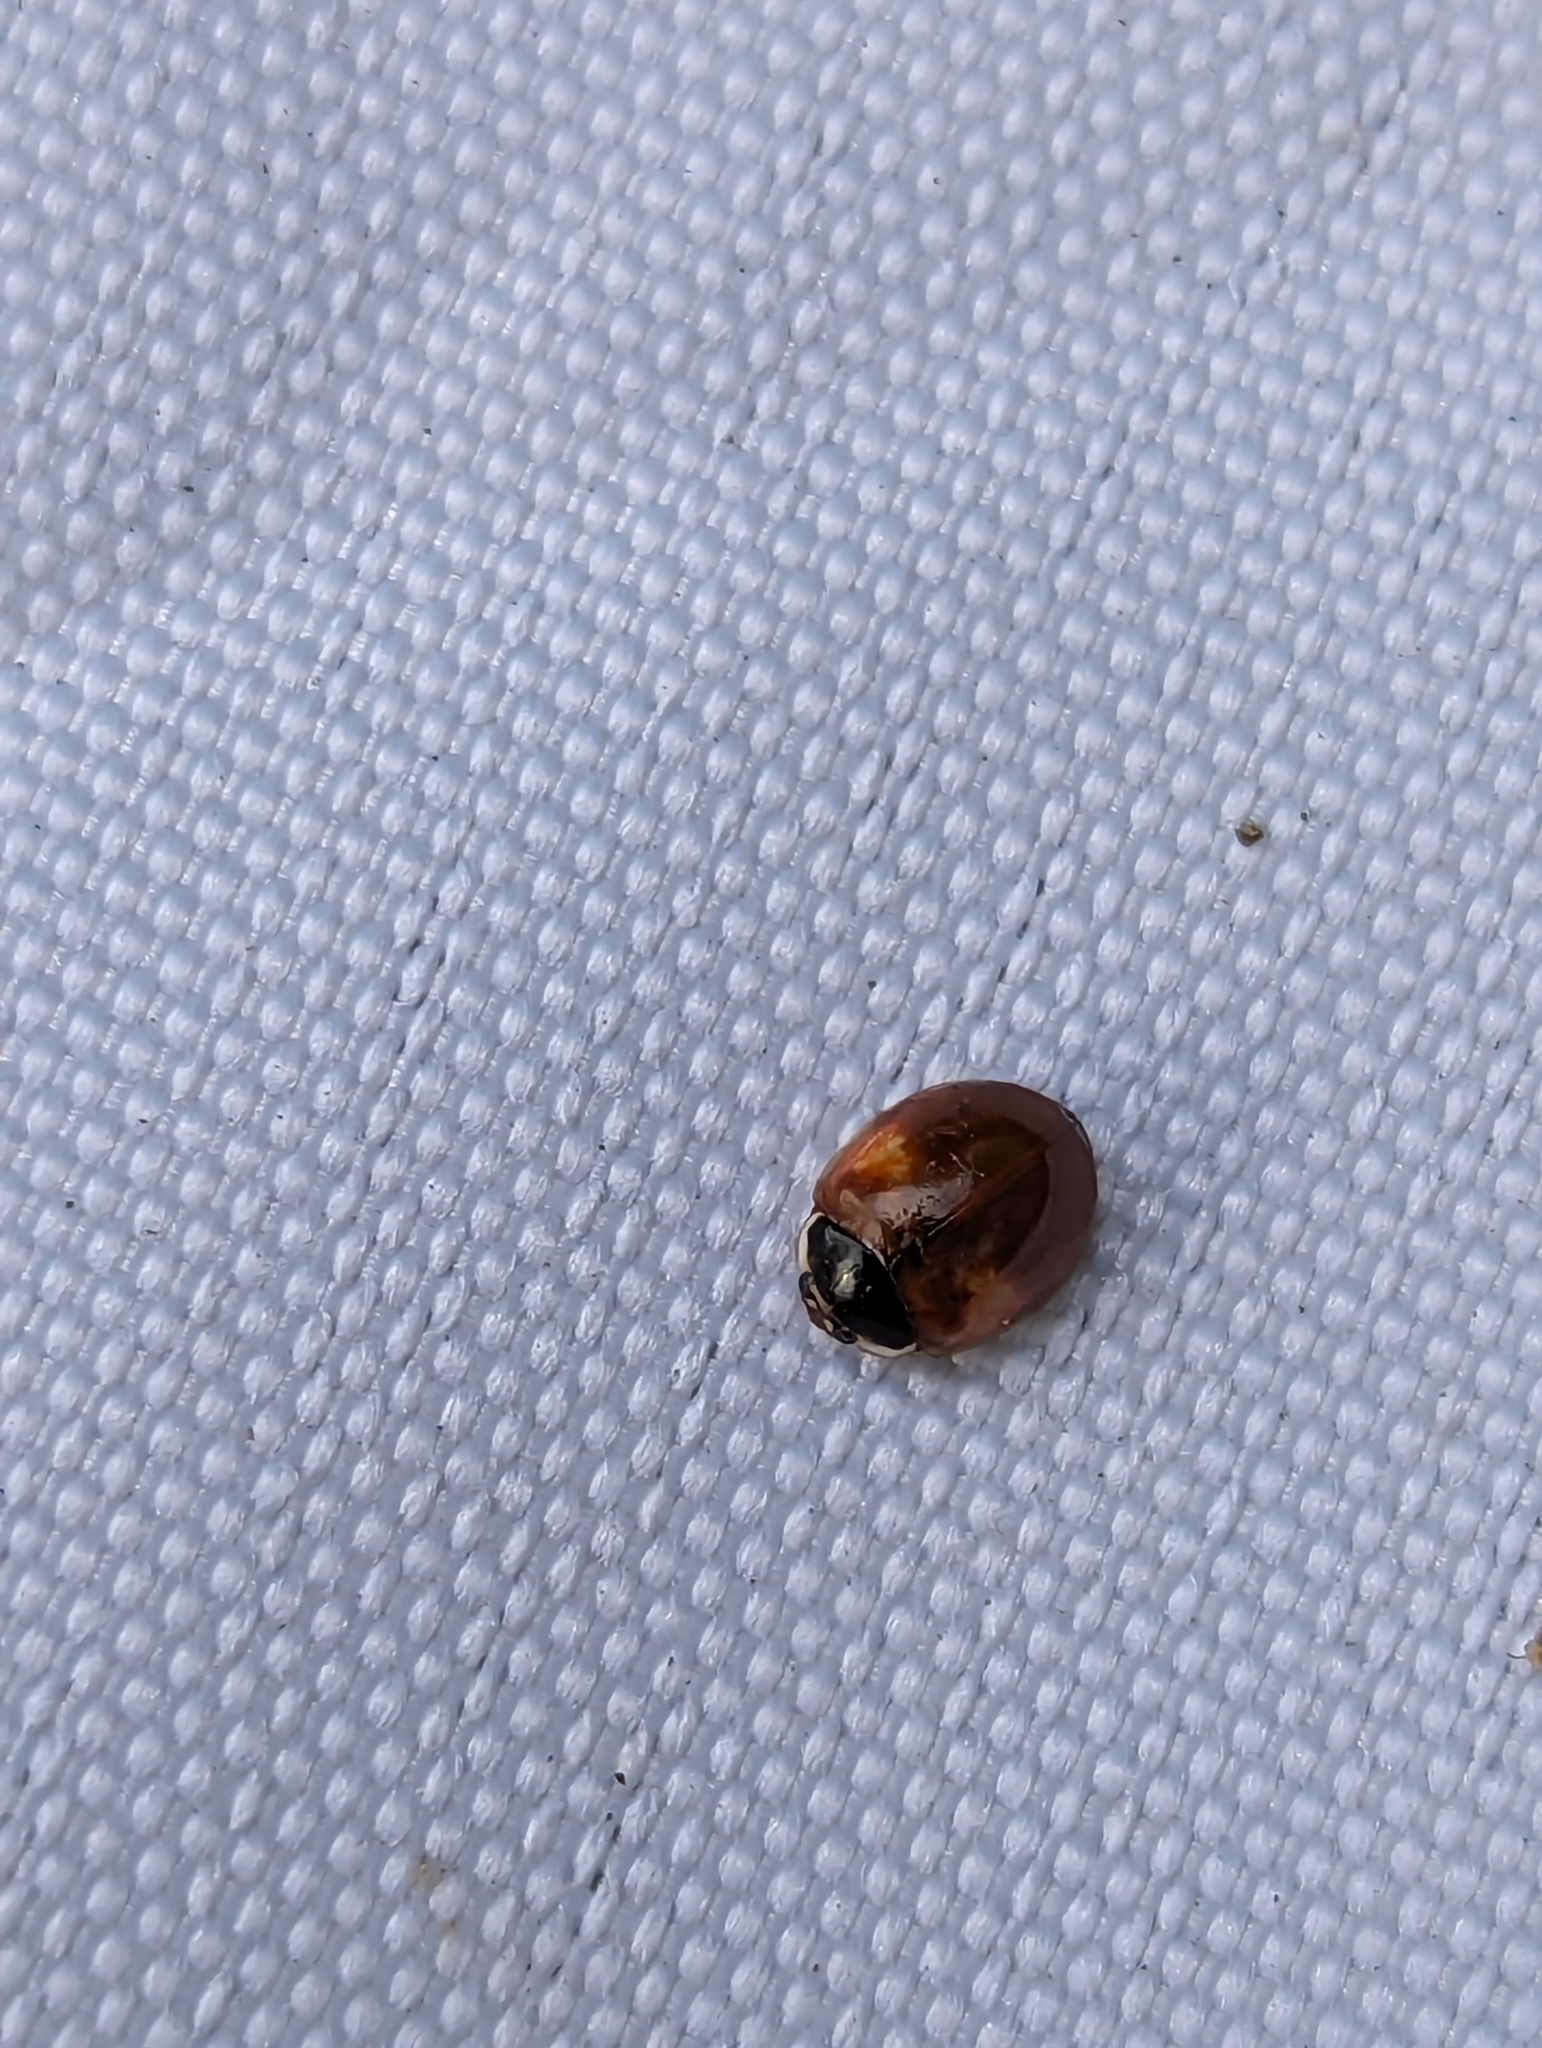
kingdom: Animalia
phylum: Arthropoda
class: Insecta
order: Coleoptera
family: Coccinellidae
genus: Adalia
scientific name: Adalia decempunctata
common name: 10-spot ladybird
